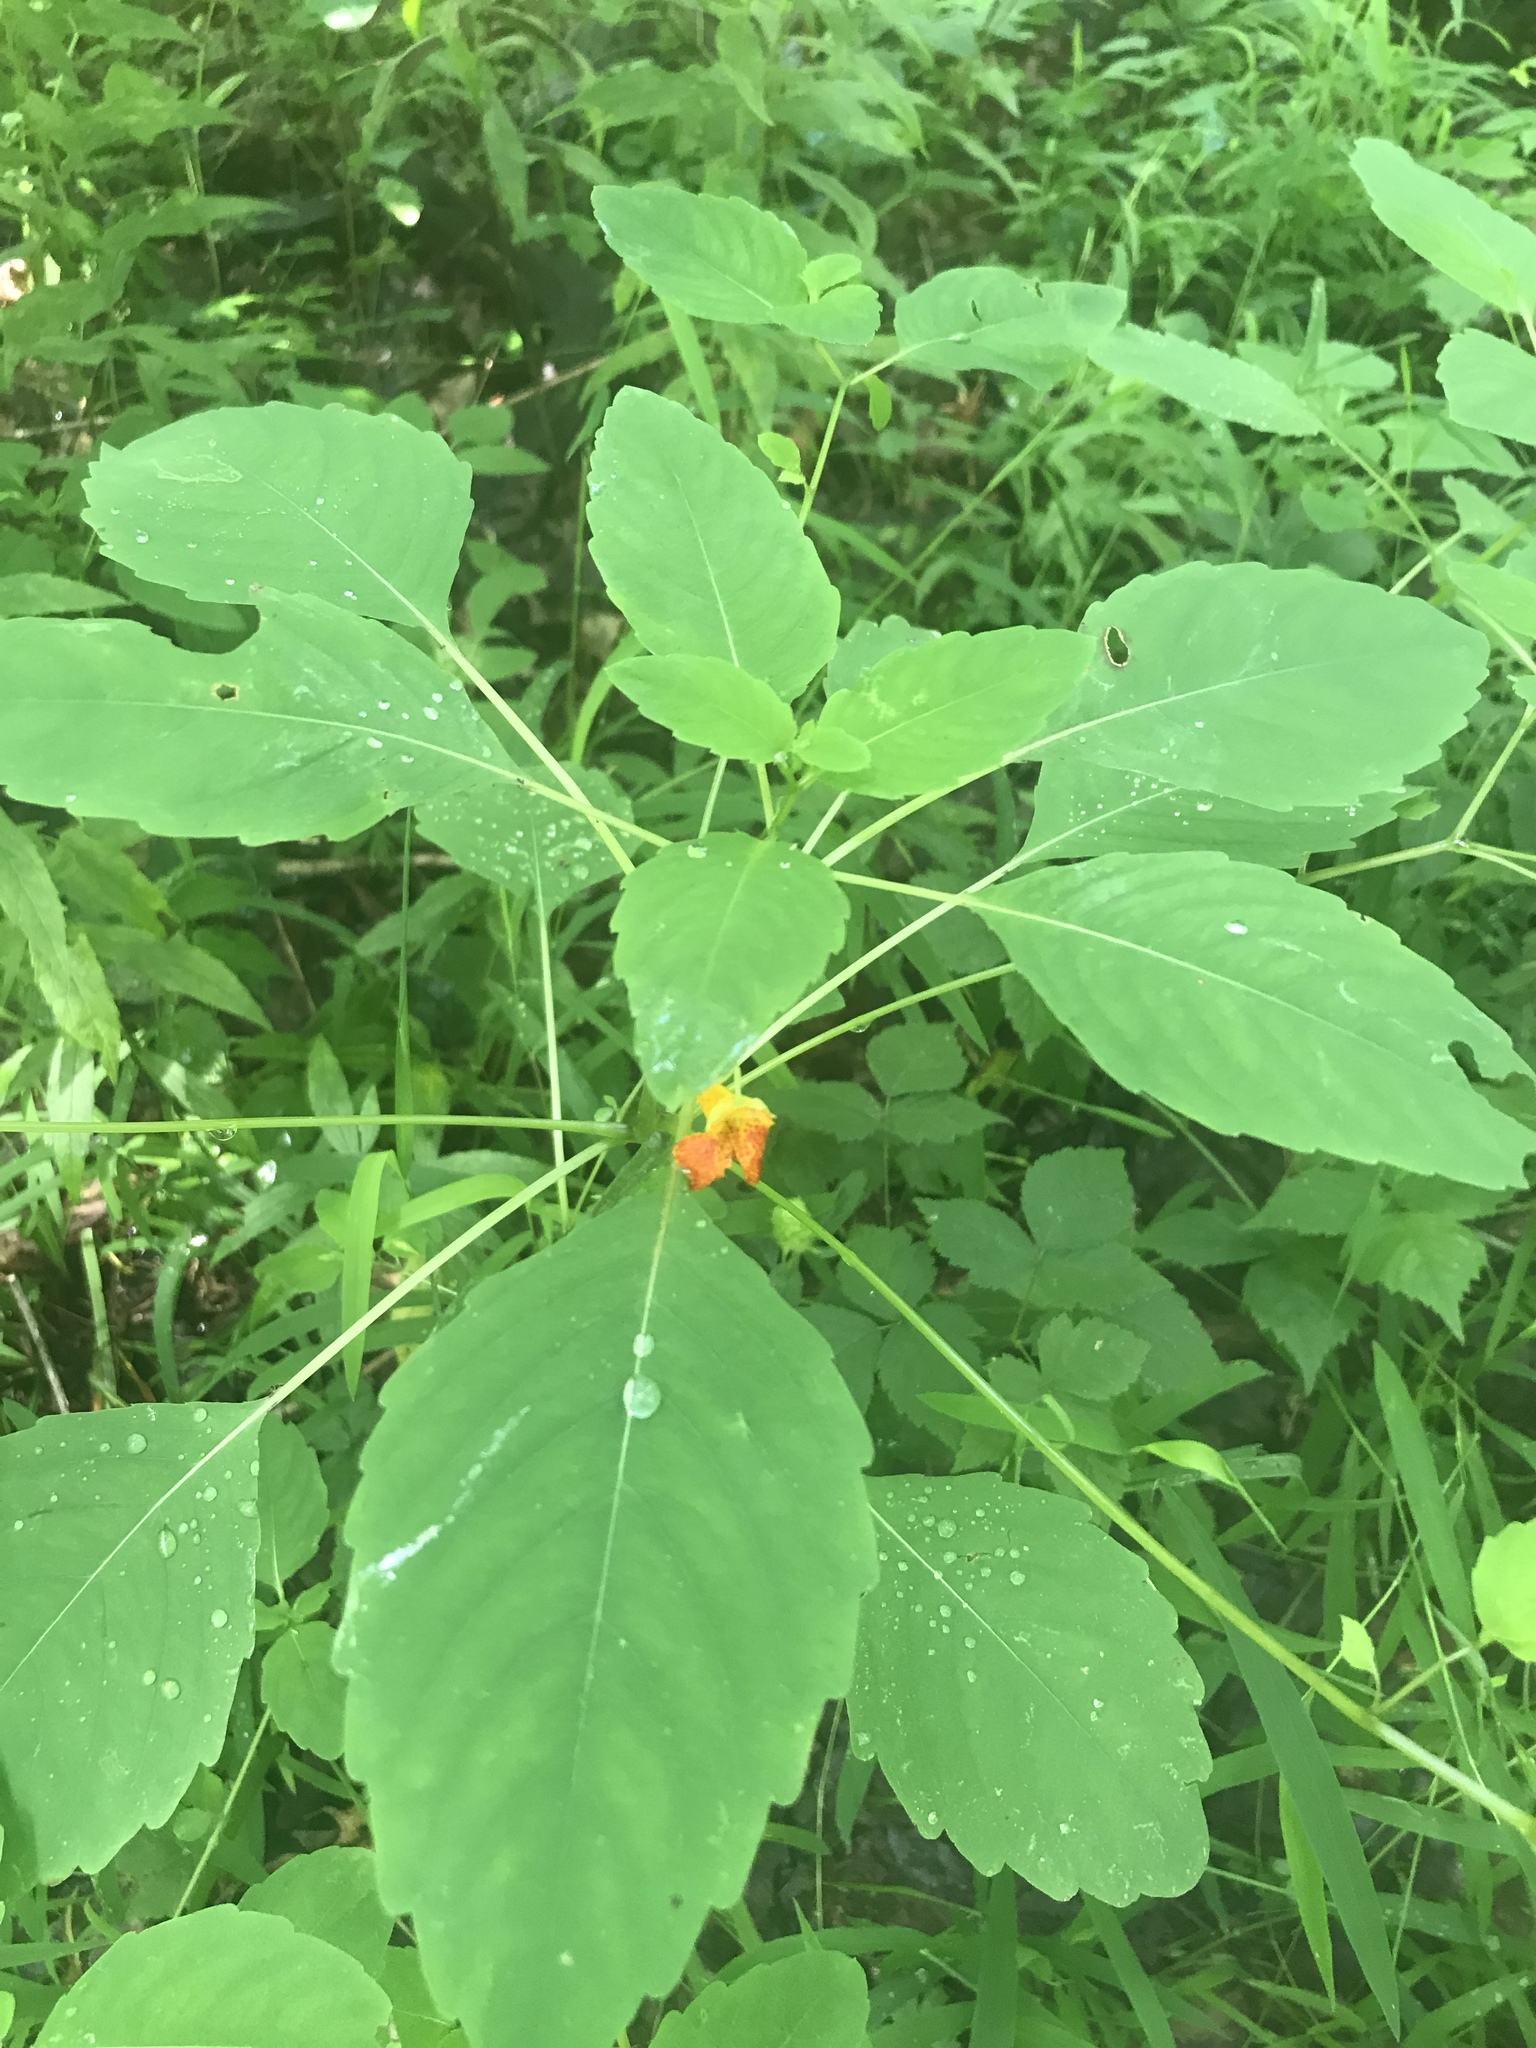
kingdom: Plantae
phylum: Tracheophyta
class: Magnoliopsida
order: Ericales
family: Balsaminaceae
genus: Impatiens
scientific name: Impatiens capensis
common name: Orange balsam
